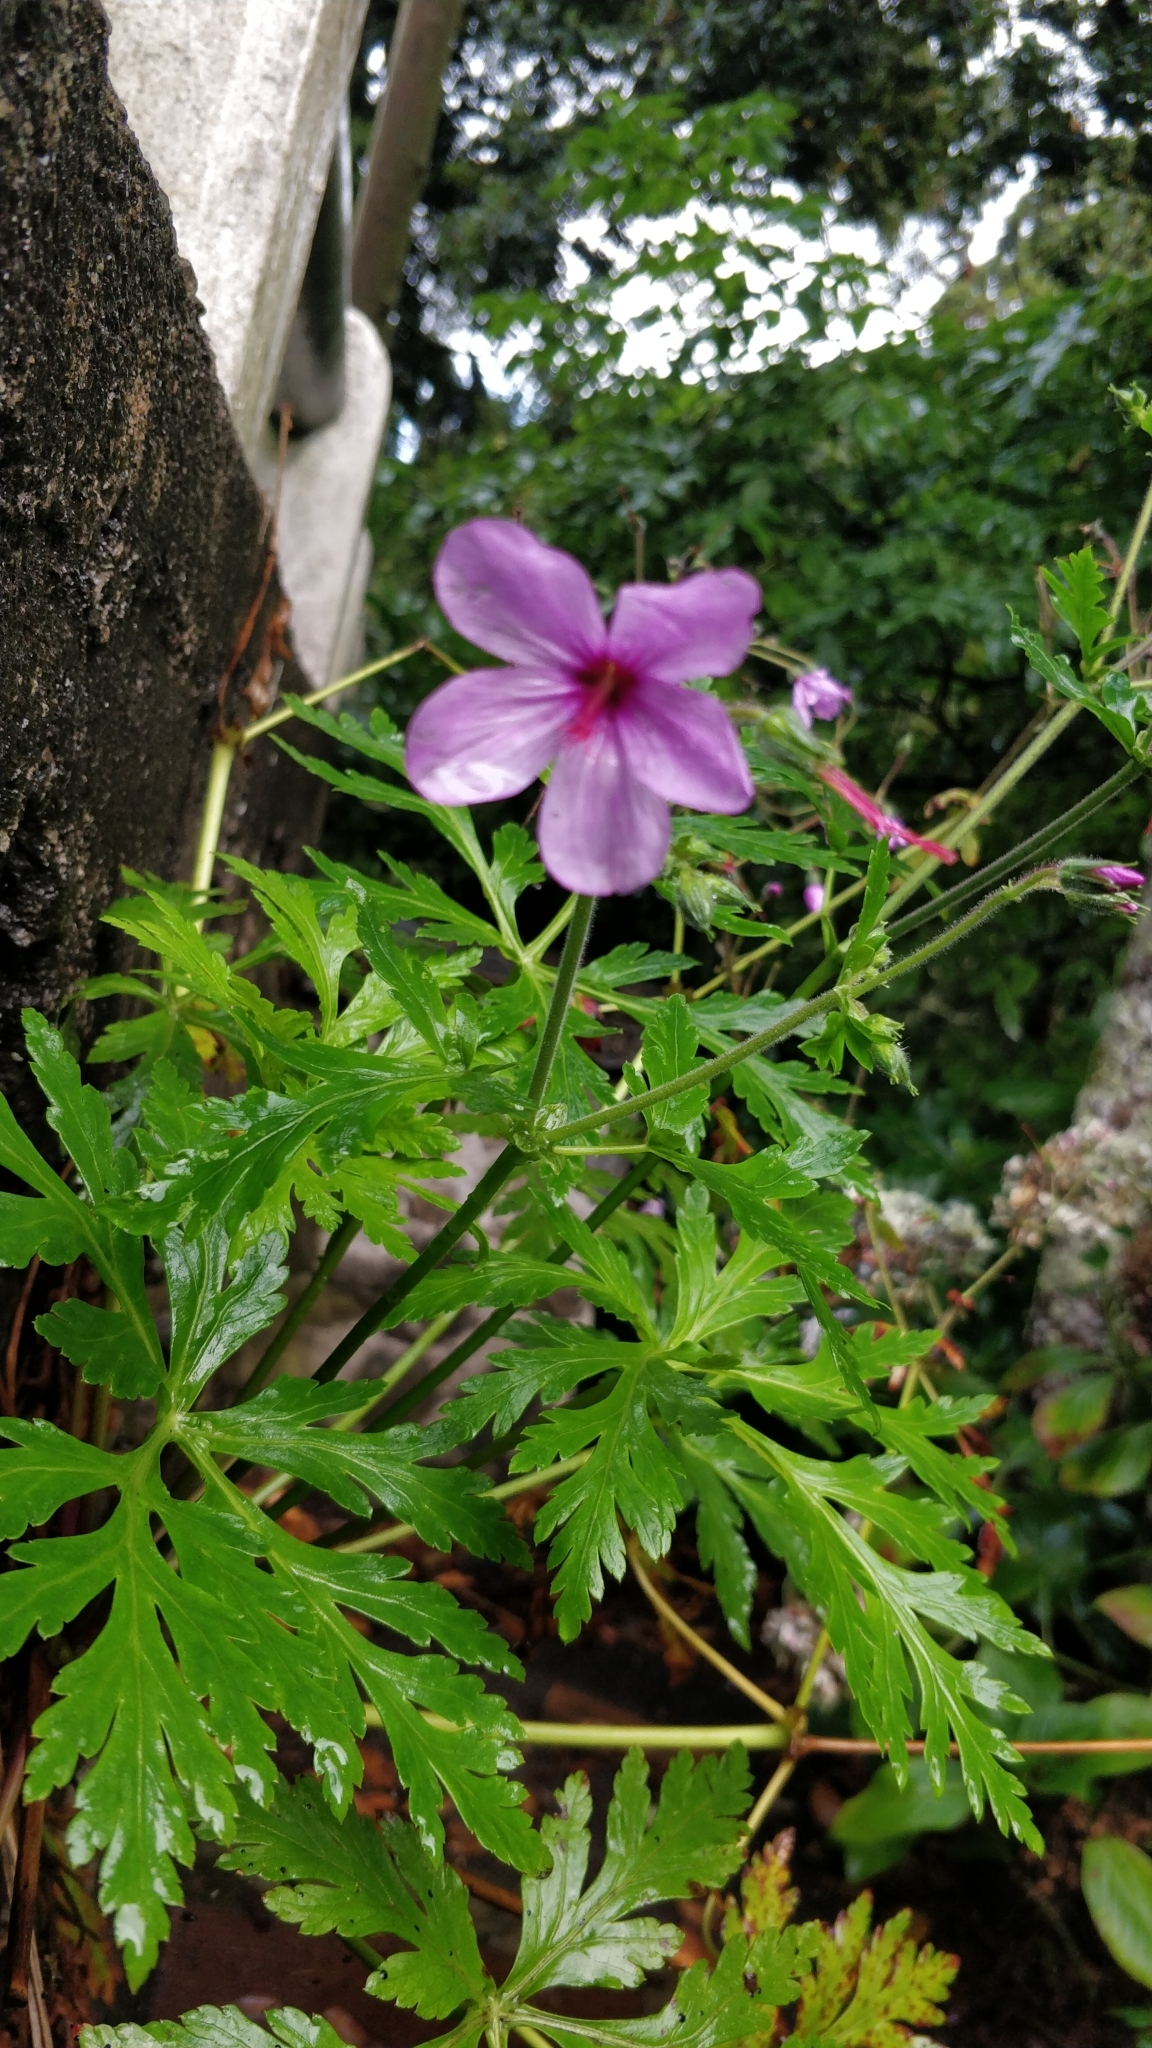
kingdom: Plantae
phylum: Tracheophyta
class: Magnoliopsida
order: Geraniales
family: Geraniaceae
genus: Geranium
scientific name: Geranium palmatum
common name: Canary island geranium
